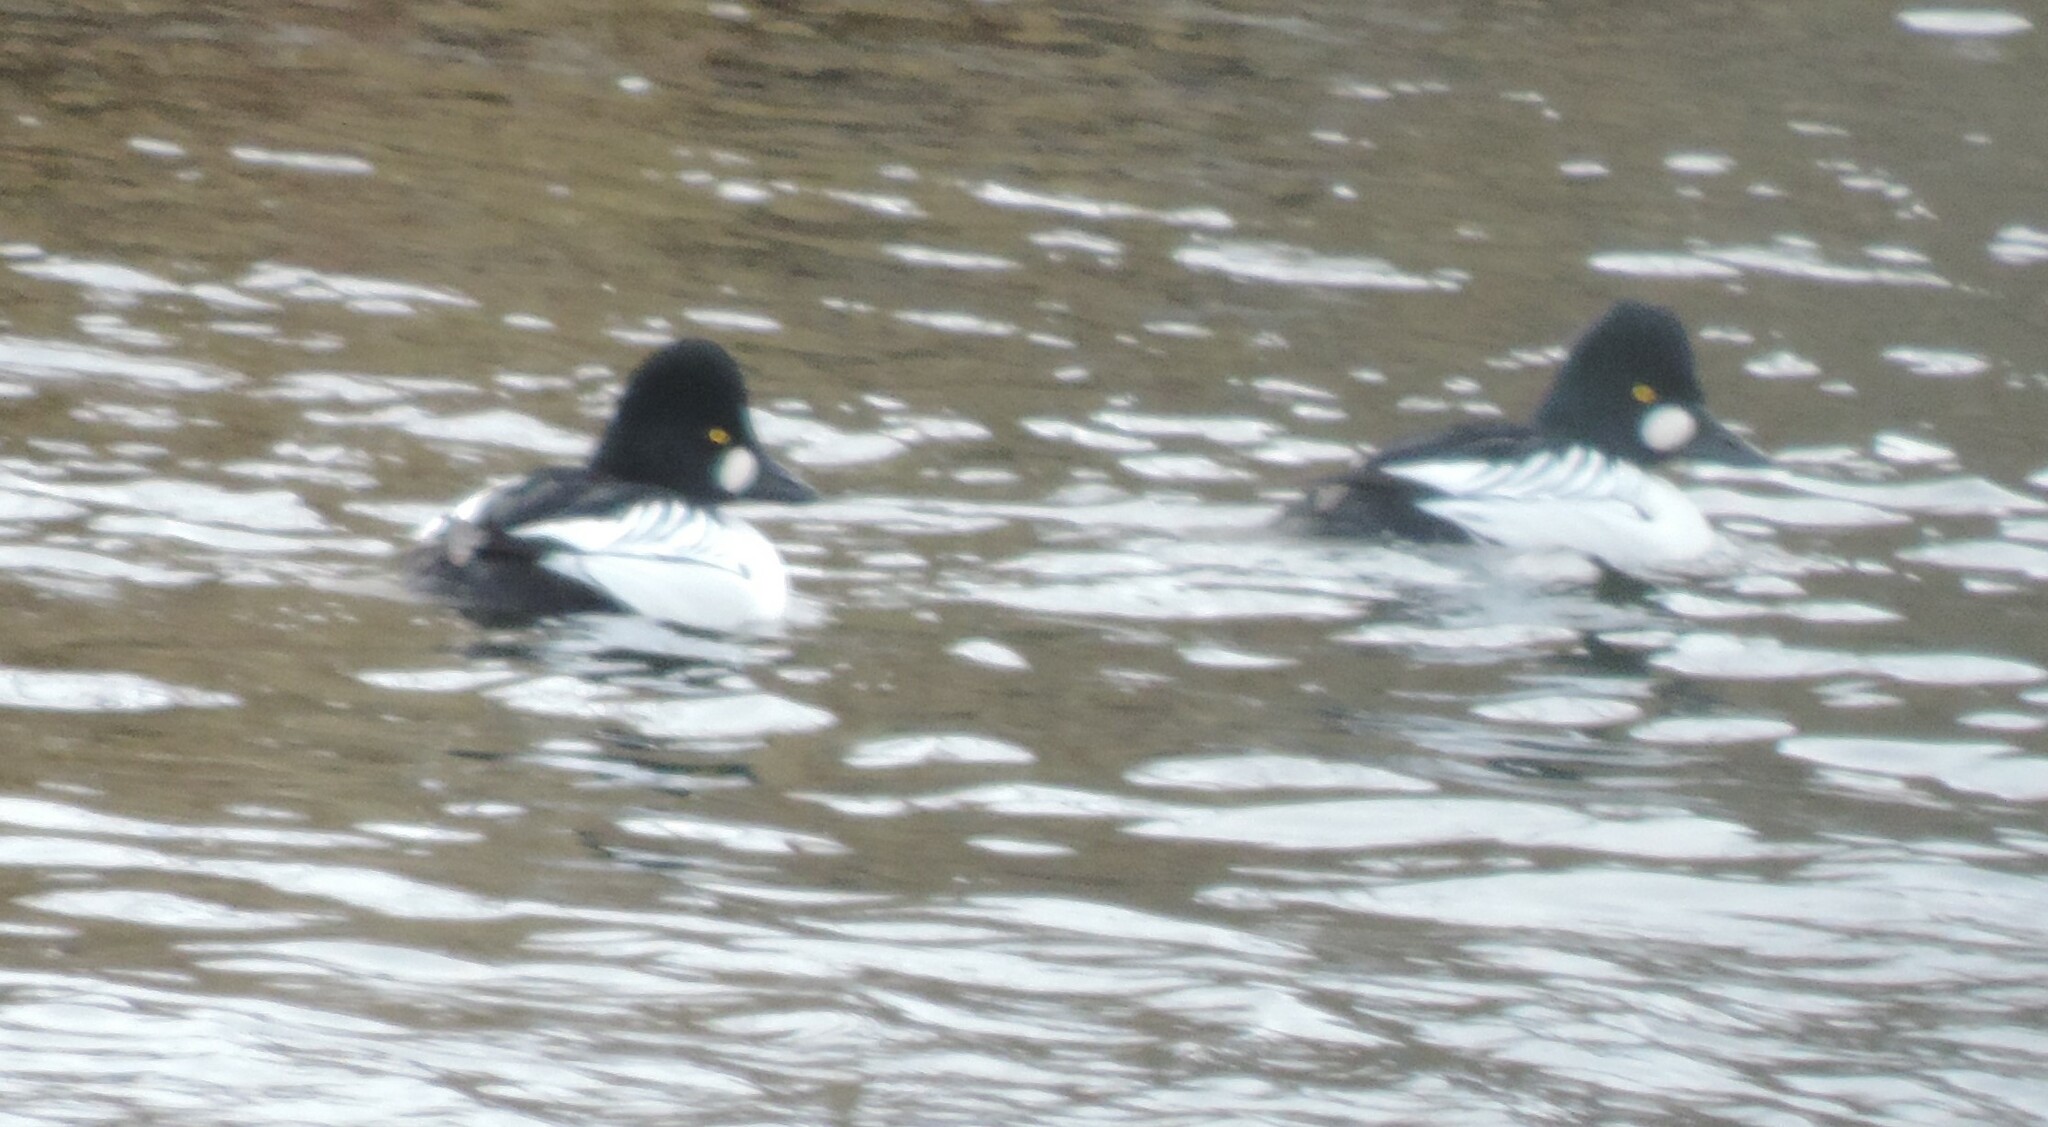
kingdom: Animalia
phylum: Chordata
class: Aves
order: Anseriformes
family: Anatidae
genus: Bucephala
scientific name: Bucephala clangula
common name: Common goldeneye
